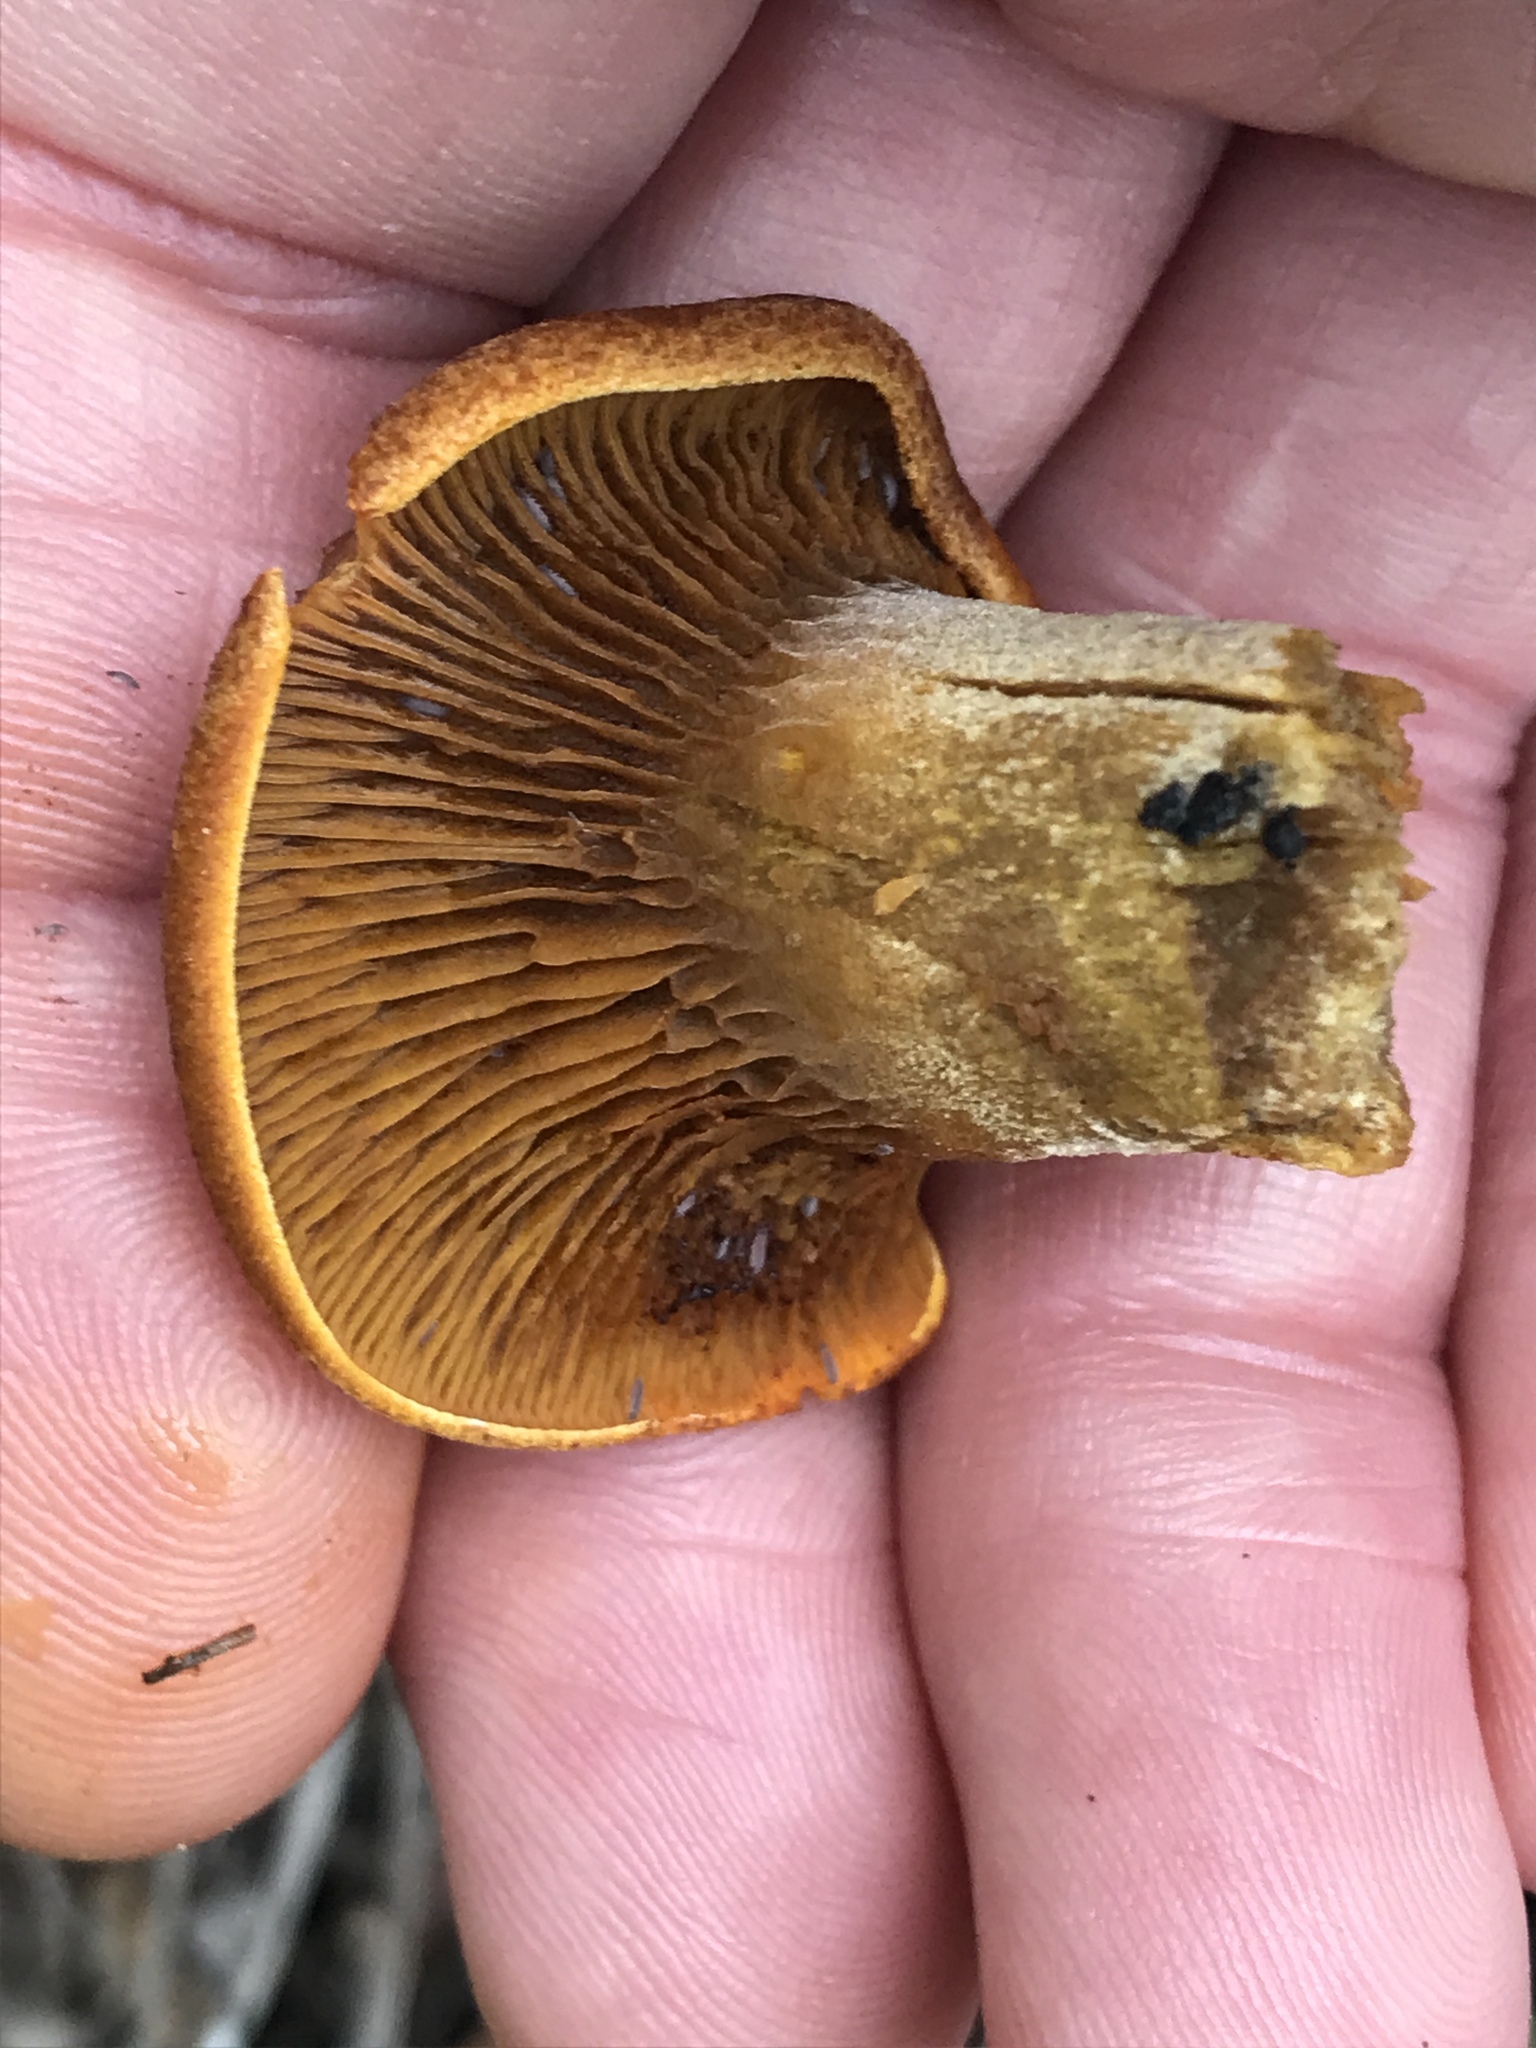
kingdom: Fungi
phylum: Basidiomycota
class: Agaricomycetes
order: Agaricales
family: Omphalotaceae
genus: Omphalotus
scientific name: Omphalotus olivascens
